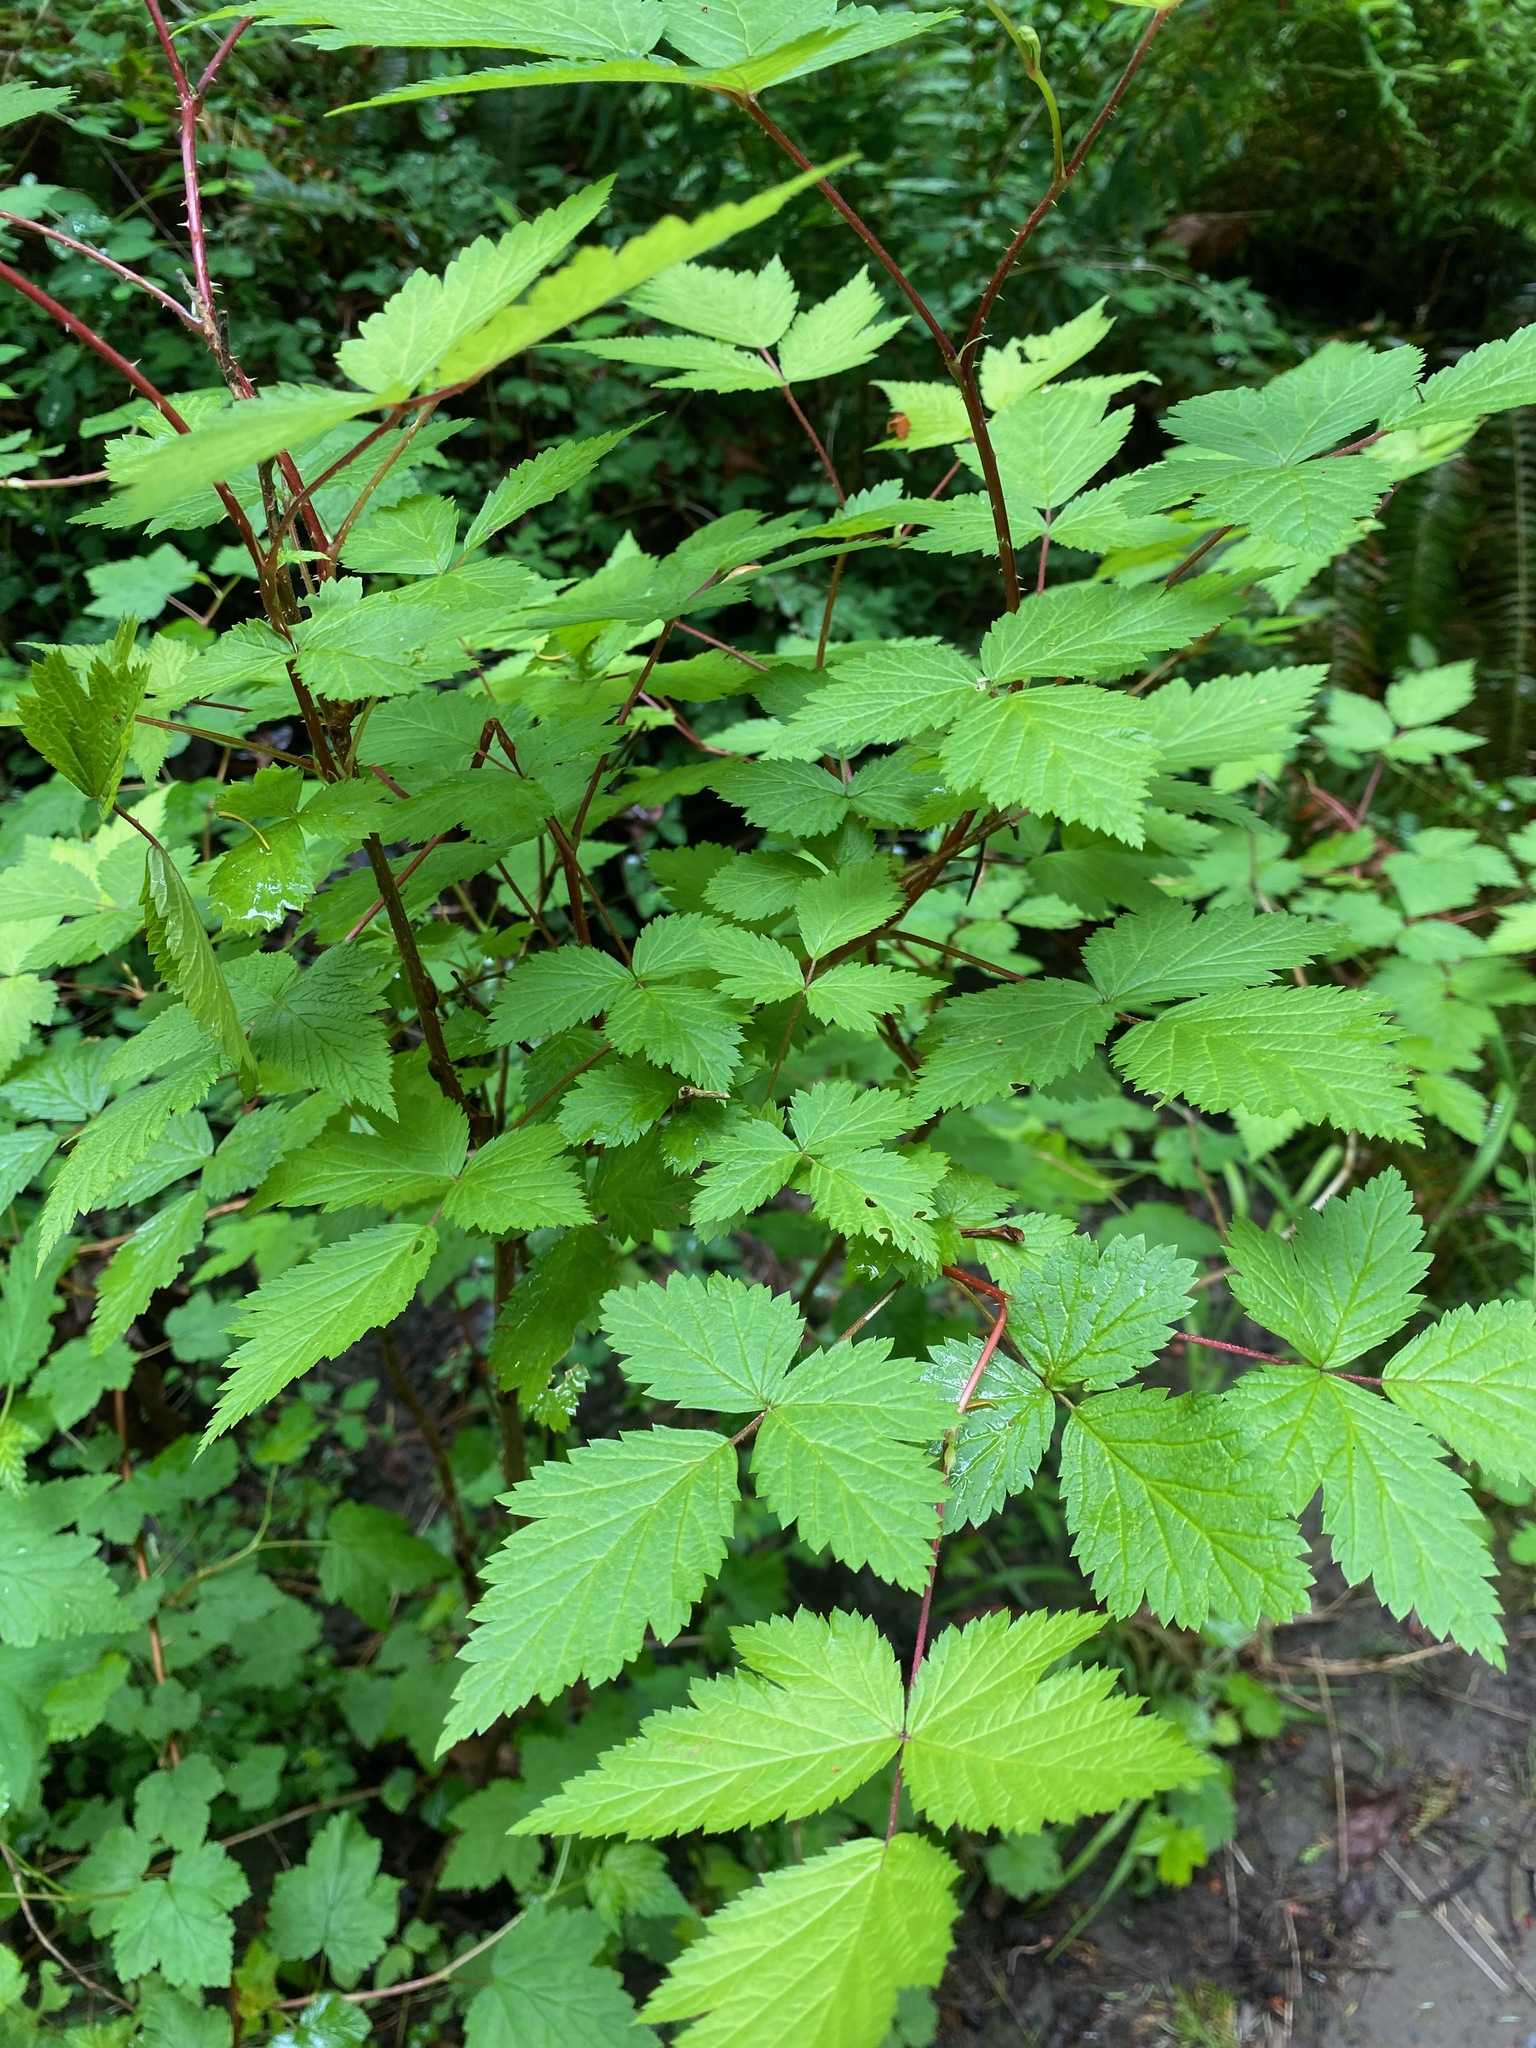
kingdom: Plantae
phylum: Tracheophyta
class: Magnoliopsida
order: Rosales
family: Rosaceae
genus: Rubus
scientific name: Rubus spectabilis
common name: Salmonberry
